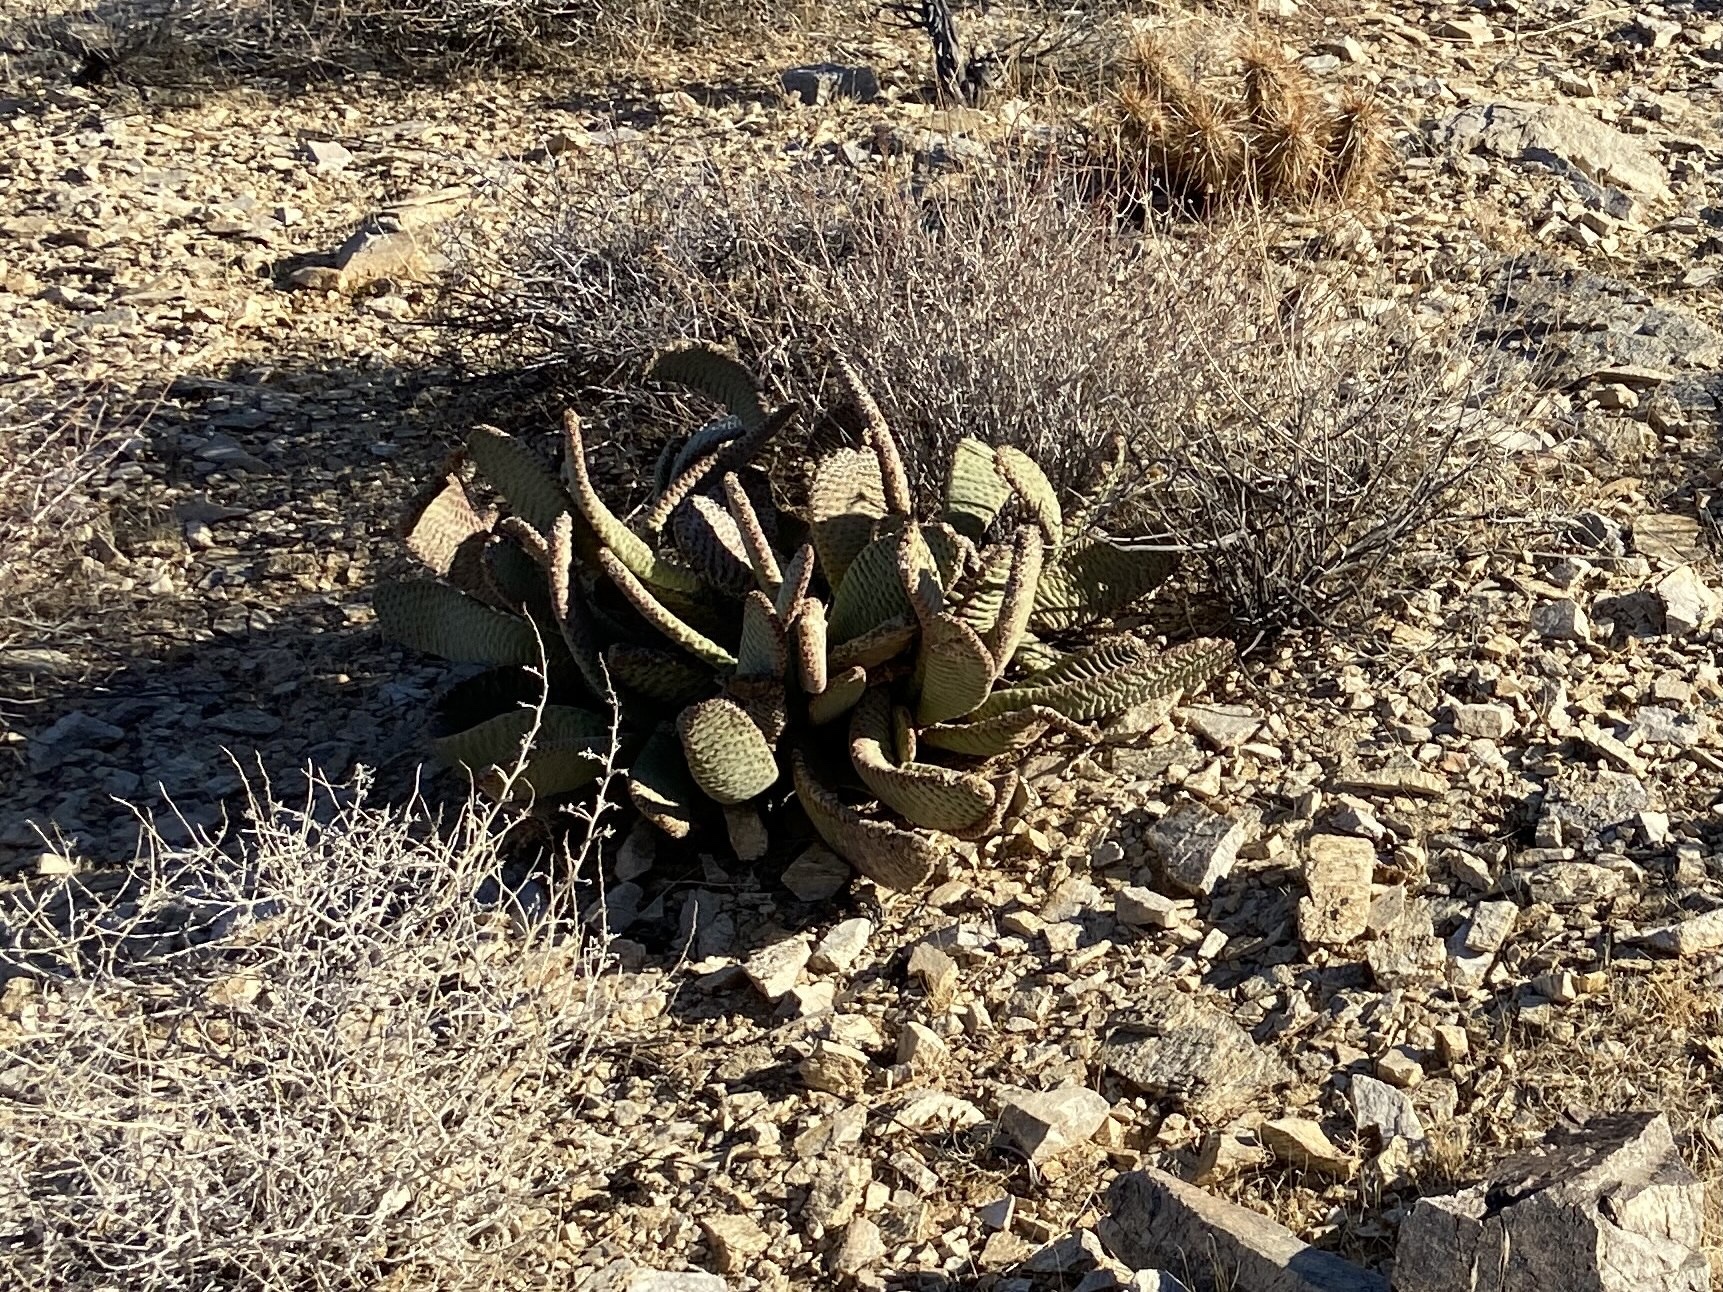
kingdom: Plantae
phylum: Tracheophyta
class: Magnoliopsida
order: Caryophyllales
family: Cactaceae
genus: Opuntia
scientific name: Opuntia basilaris
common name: Beavertail prickly-pear
